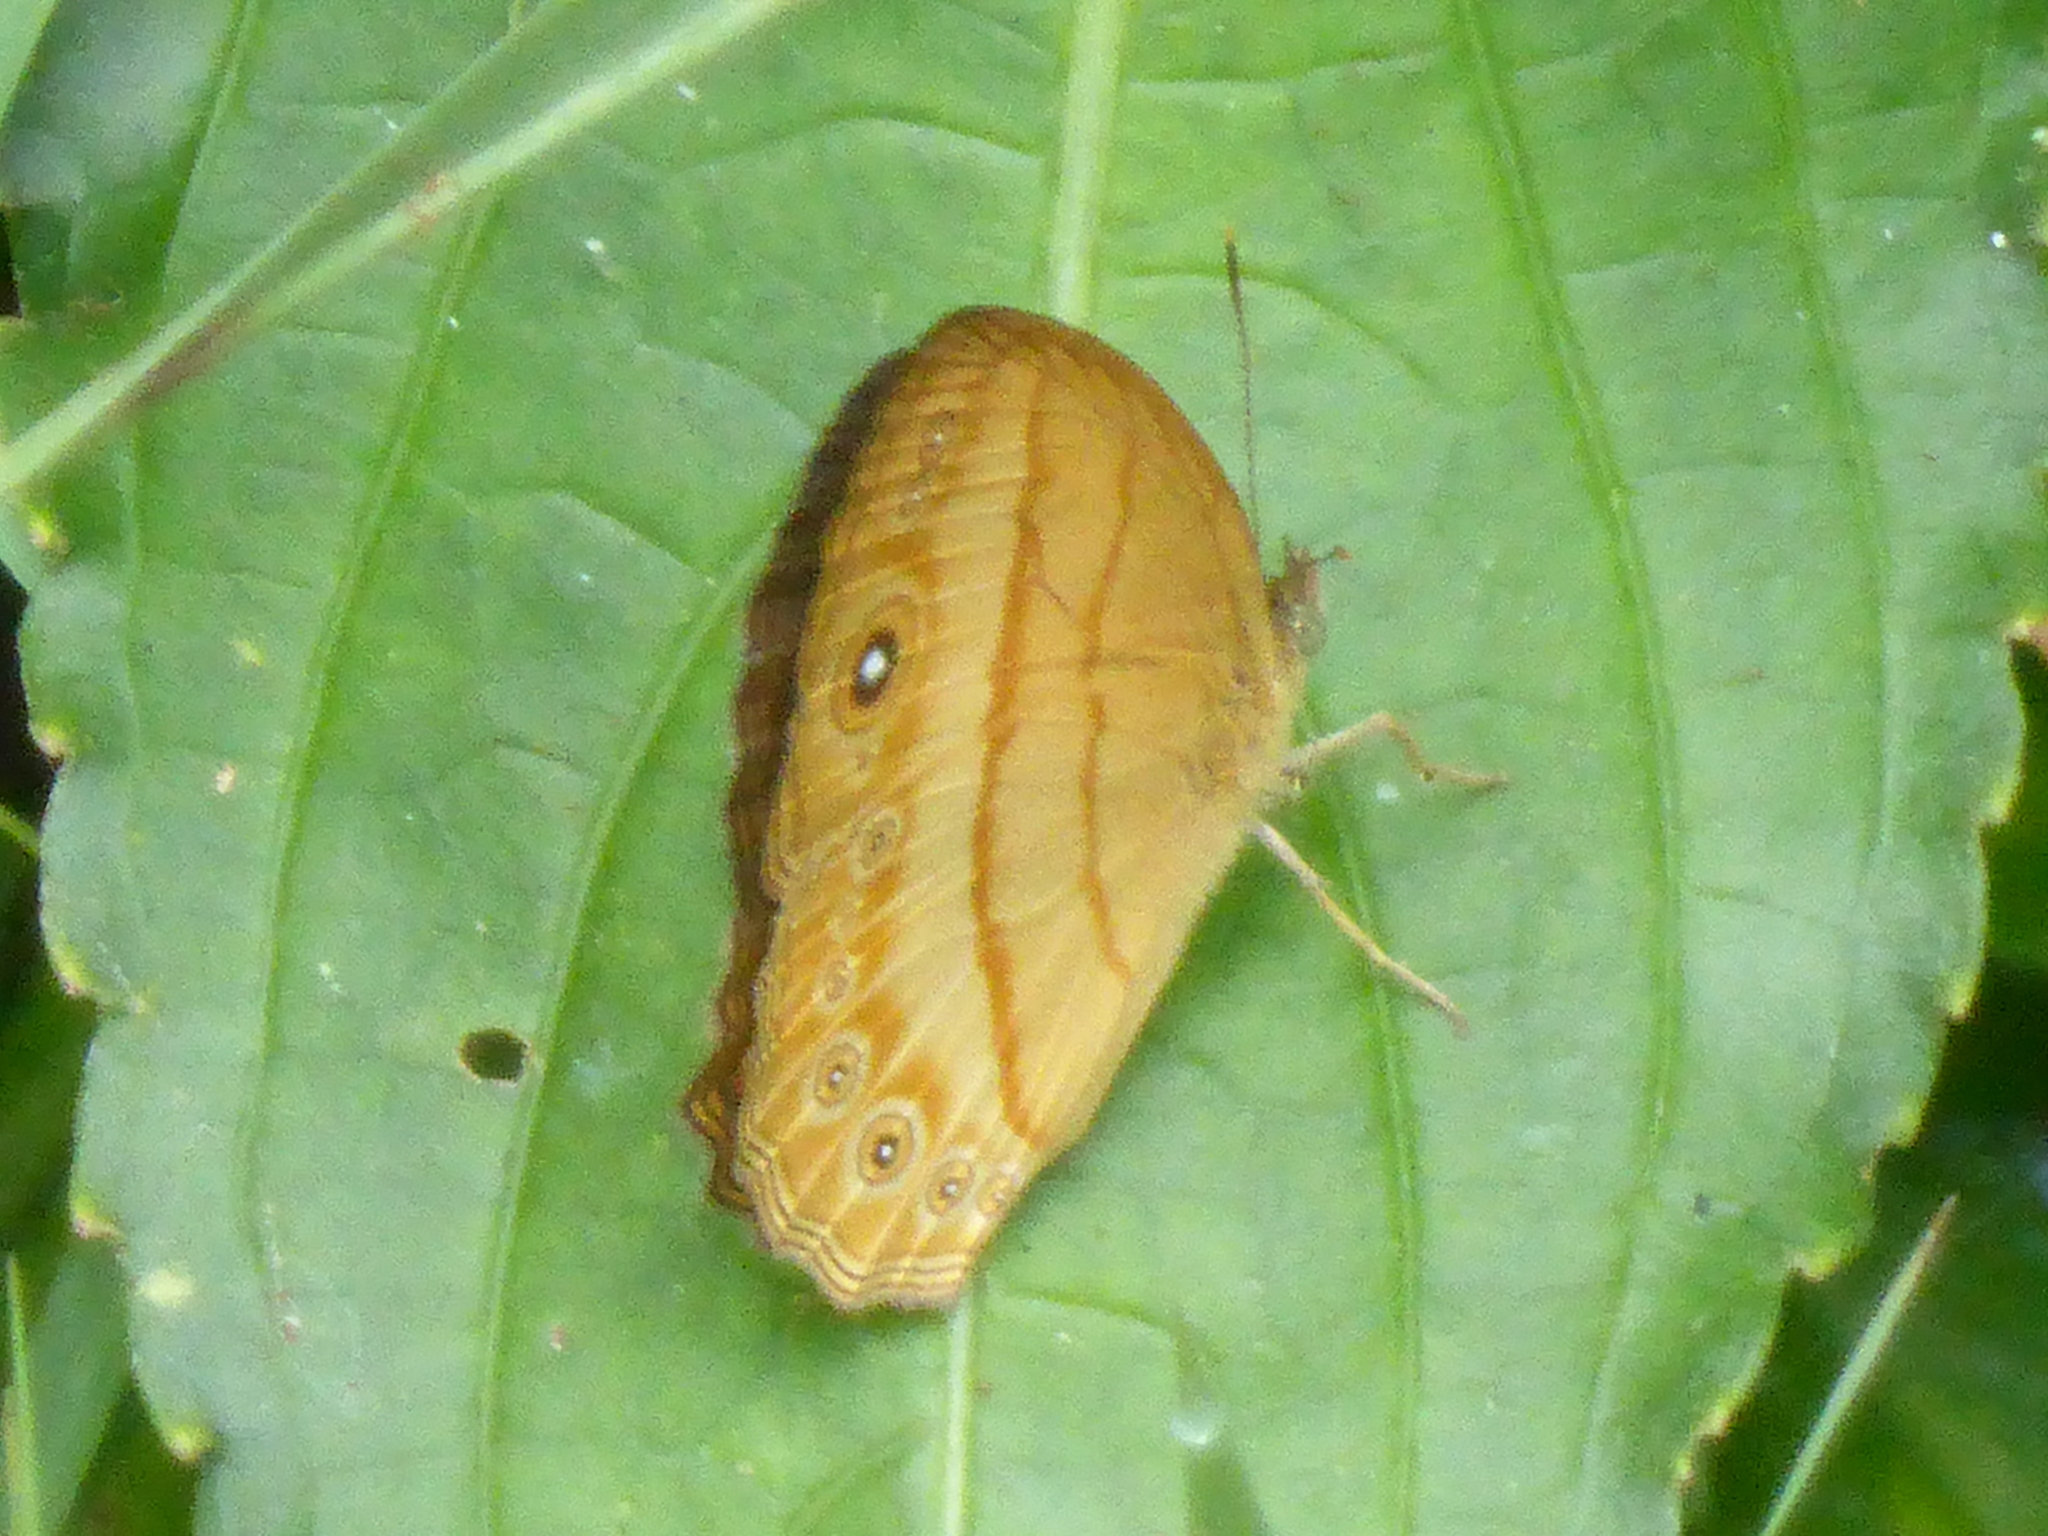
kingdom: Animalia
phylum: Arthropoda
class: Insecta
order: Lepidoptera
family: Nymphalidae
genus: Mycalesis
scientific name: Mycalesis anapita
